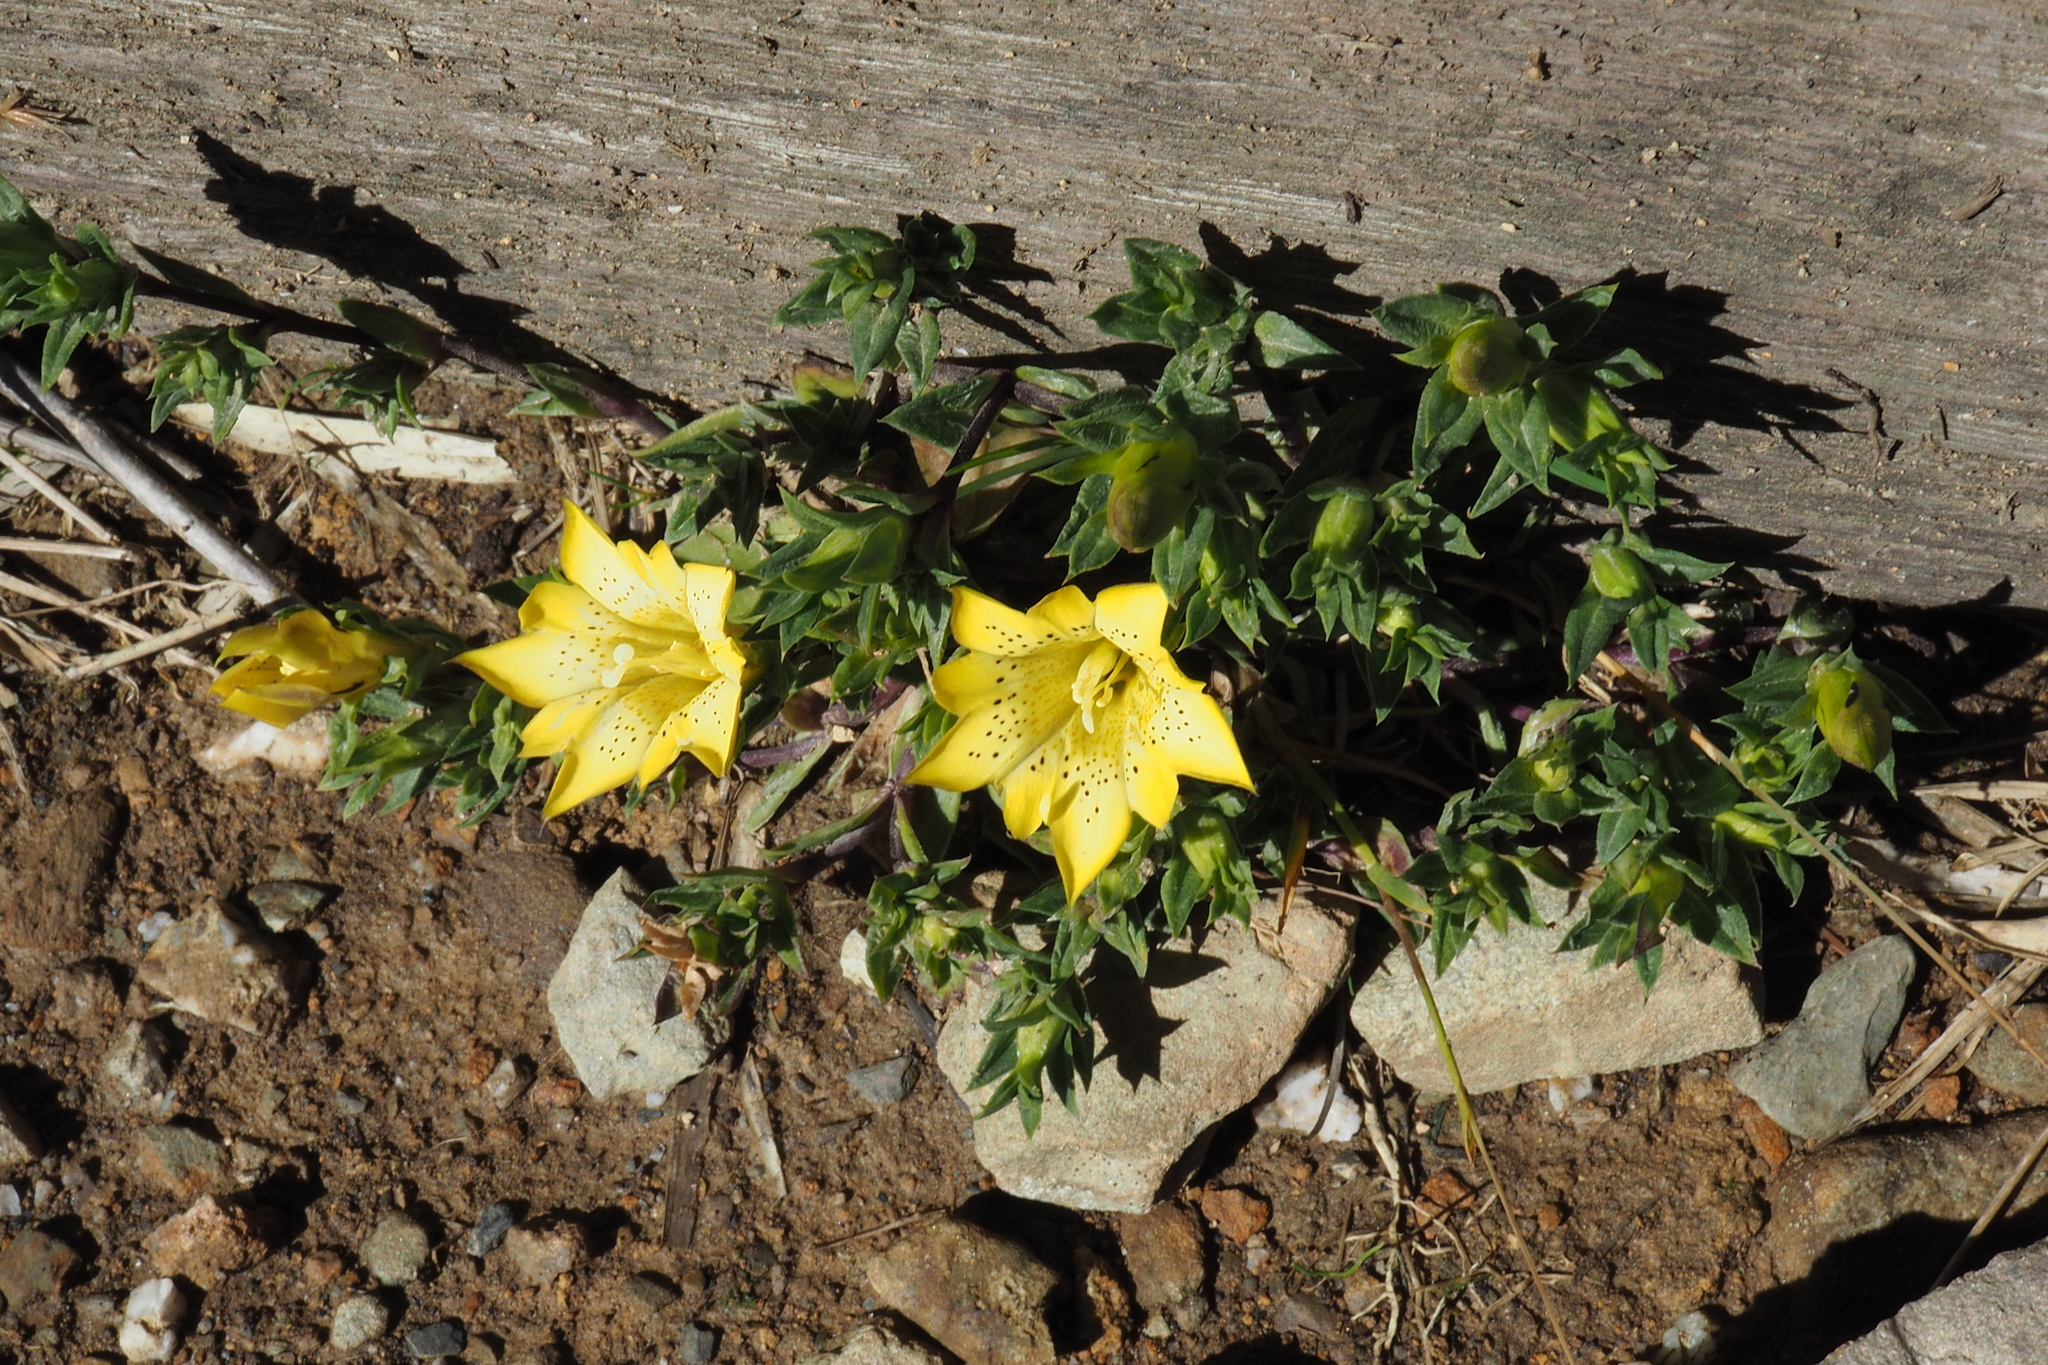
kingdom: Plantae
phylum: Tracheophyta
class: Magnoliopsida
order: Gentianales
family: Gentianaceae
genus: Gentiana
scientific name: Gentiana scabrida
